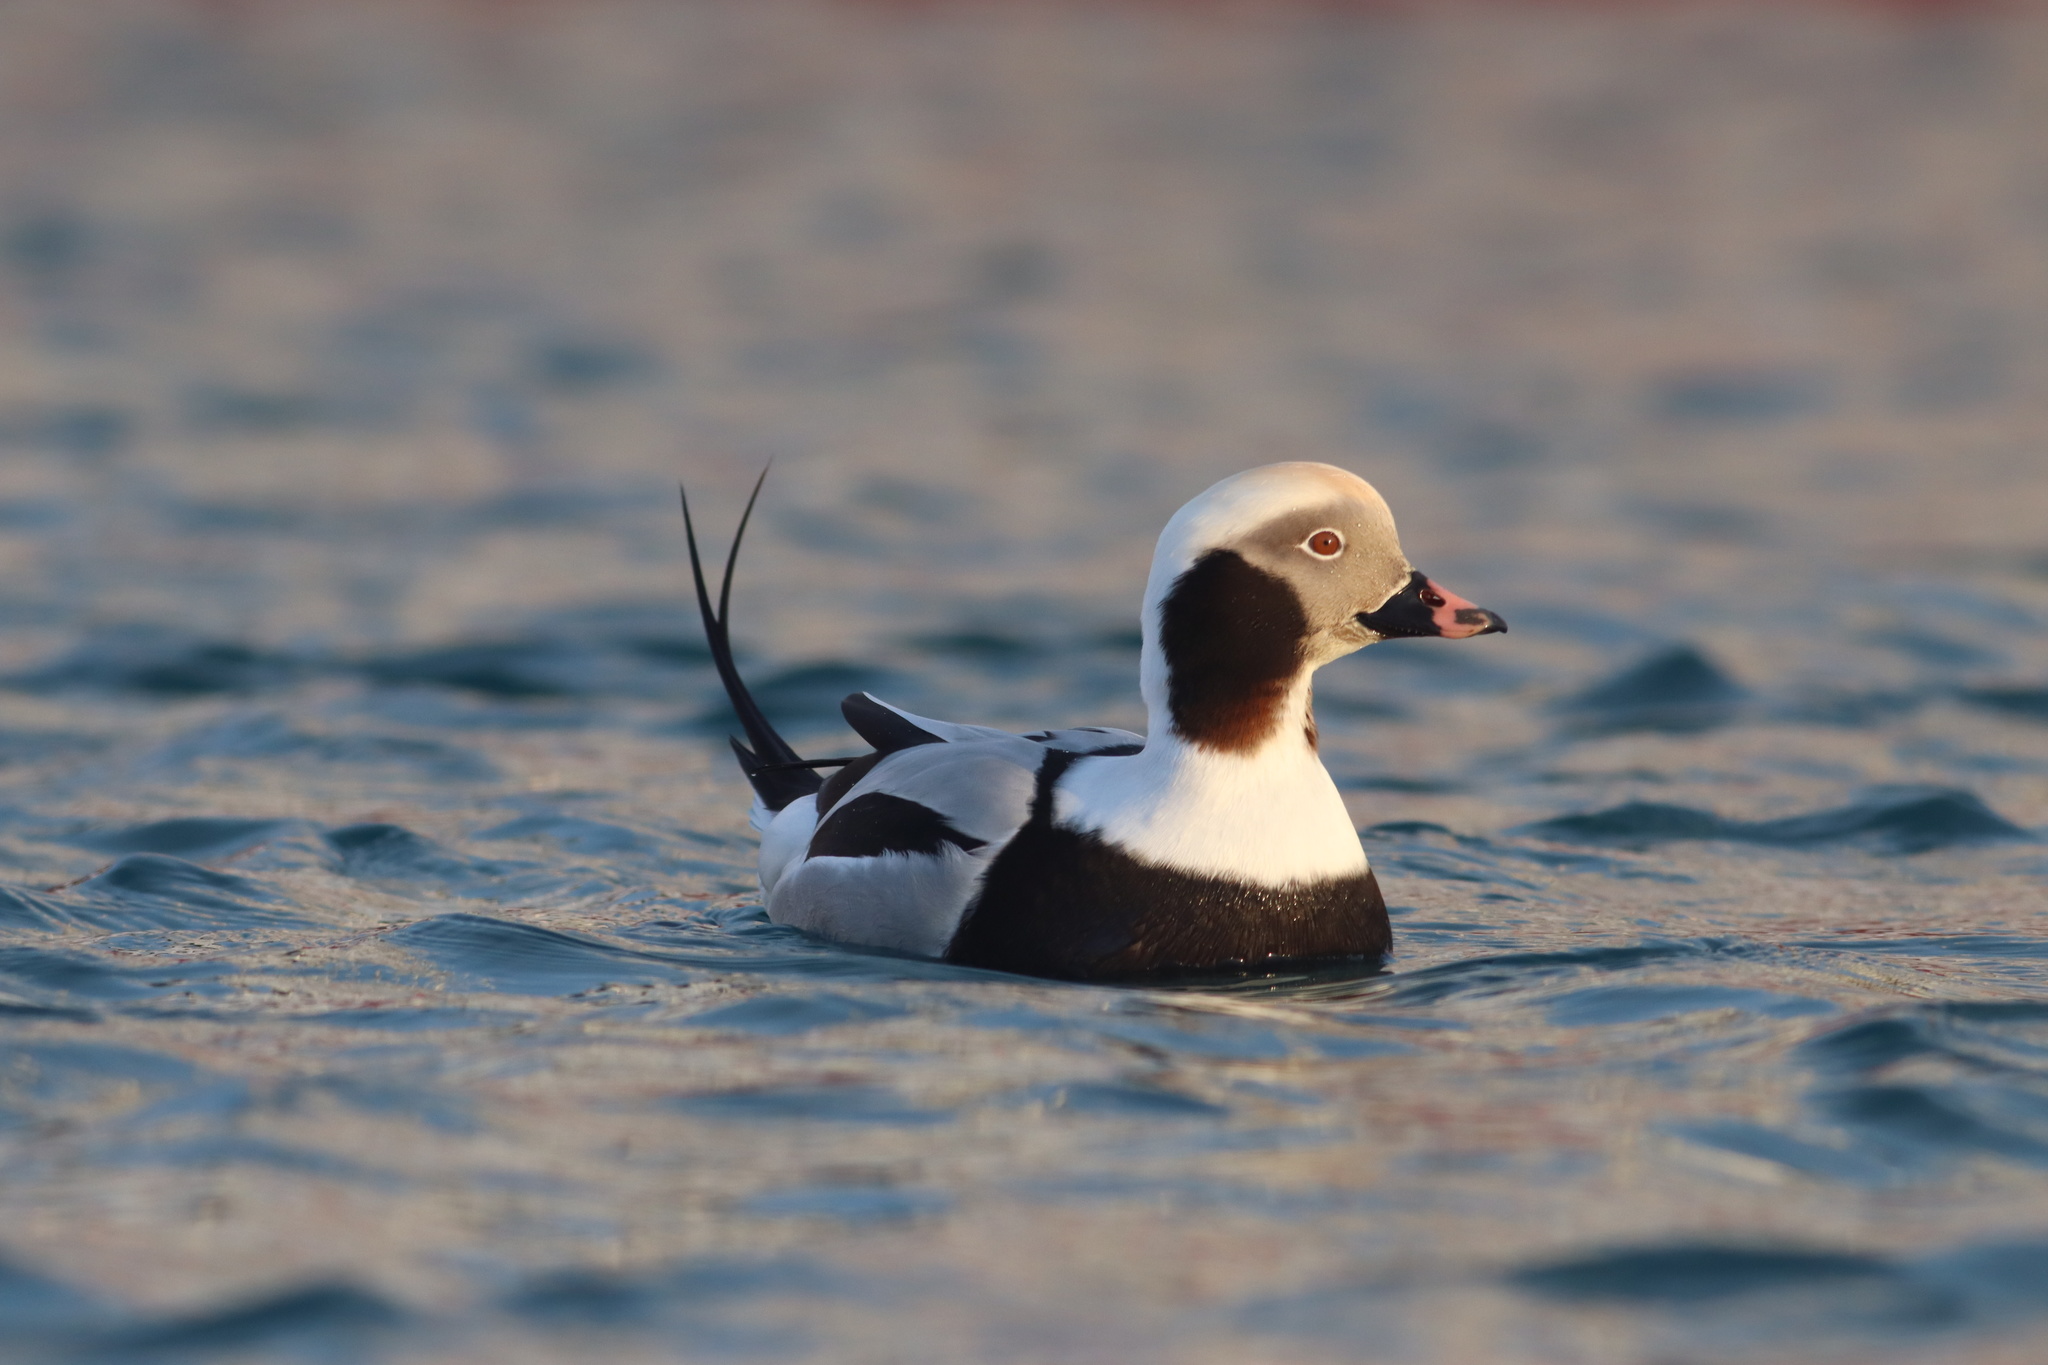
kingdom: Animalia
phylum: Chordata
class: Aves
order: Anseriformes
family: Anatidae
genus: Clangula
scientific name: Clangula hyemalis
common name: Long-tailed duck
